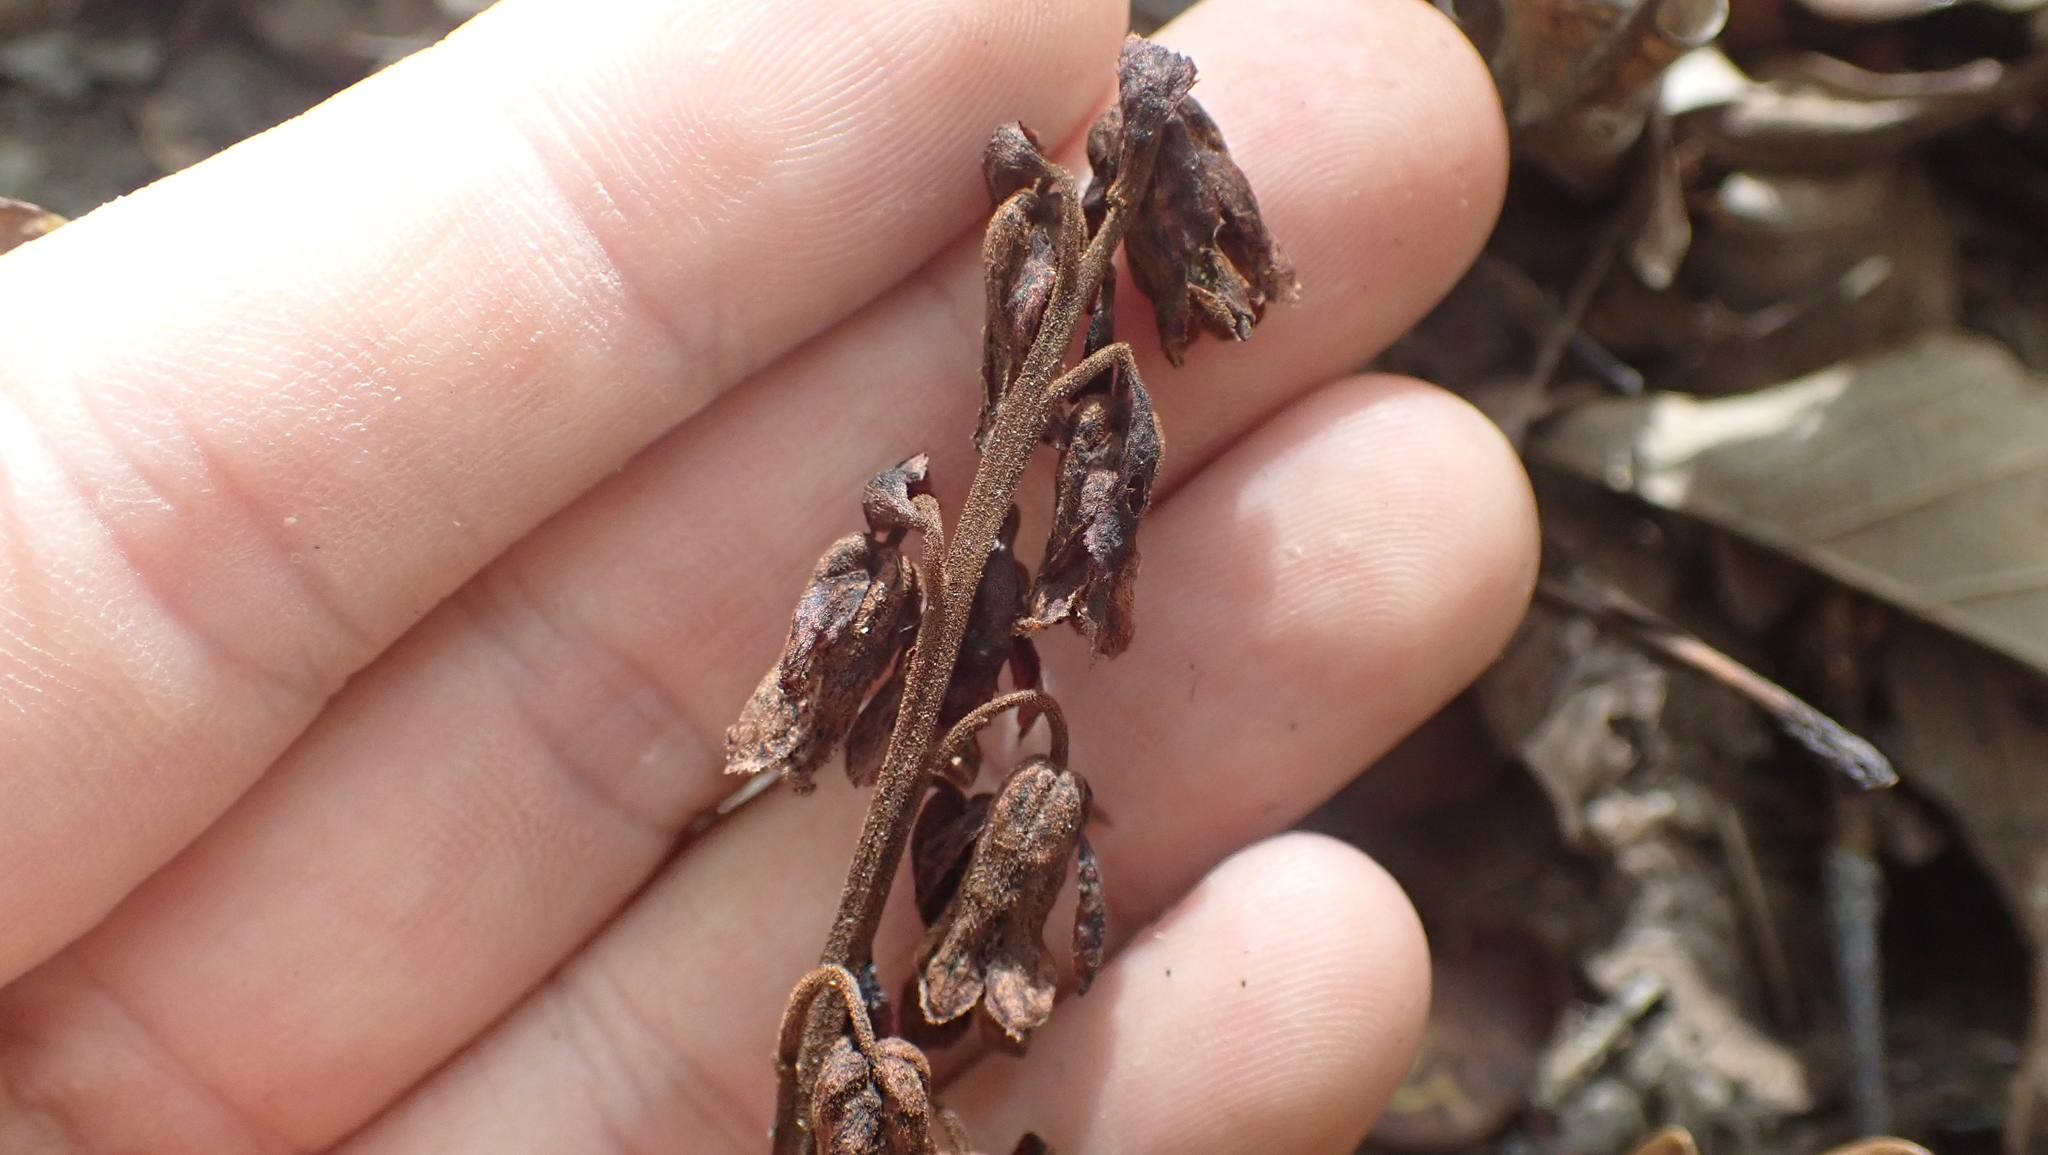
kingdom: Plantae
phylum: Tracheophyta
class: Magnoliopsida
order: Ericales
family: Ericaceae
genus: Hypopitys
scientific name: Hypopitys monotropa
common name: Yellow bird's-nest
